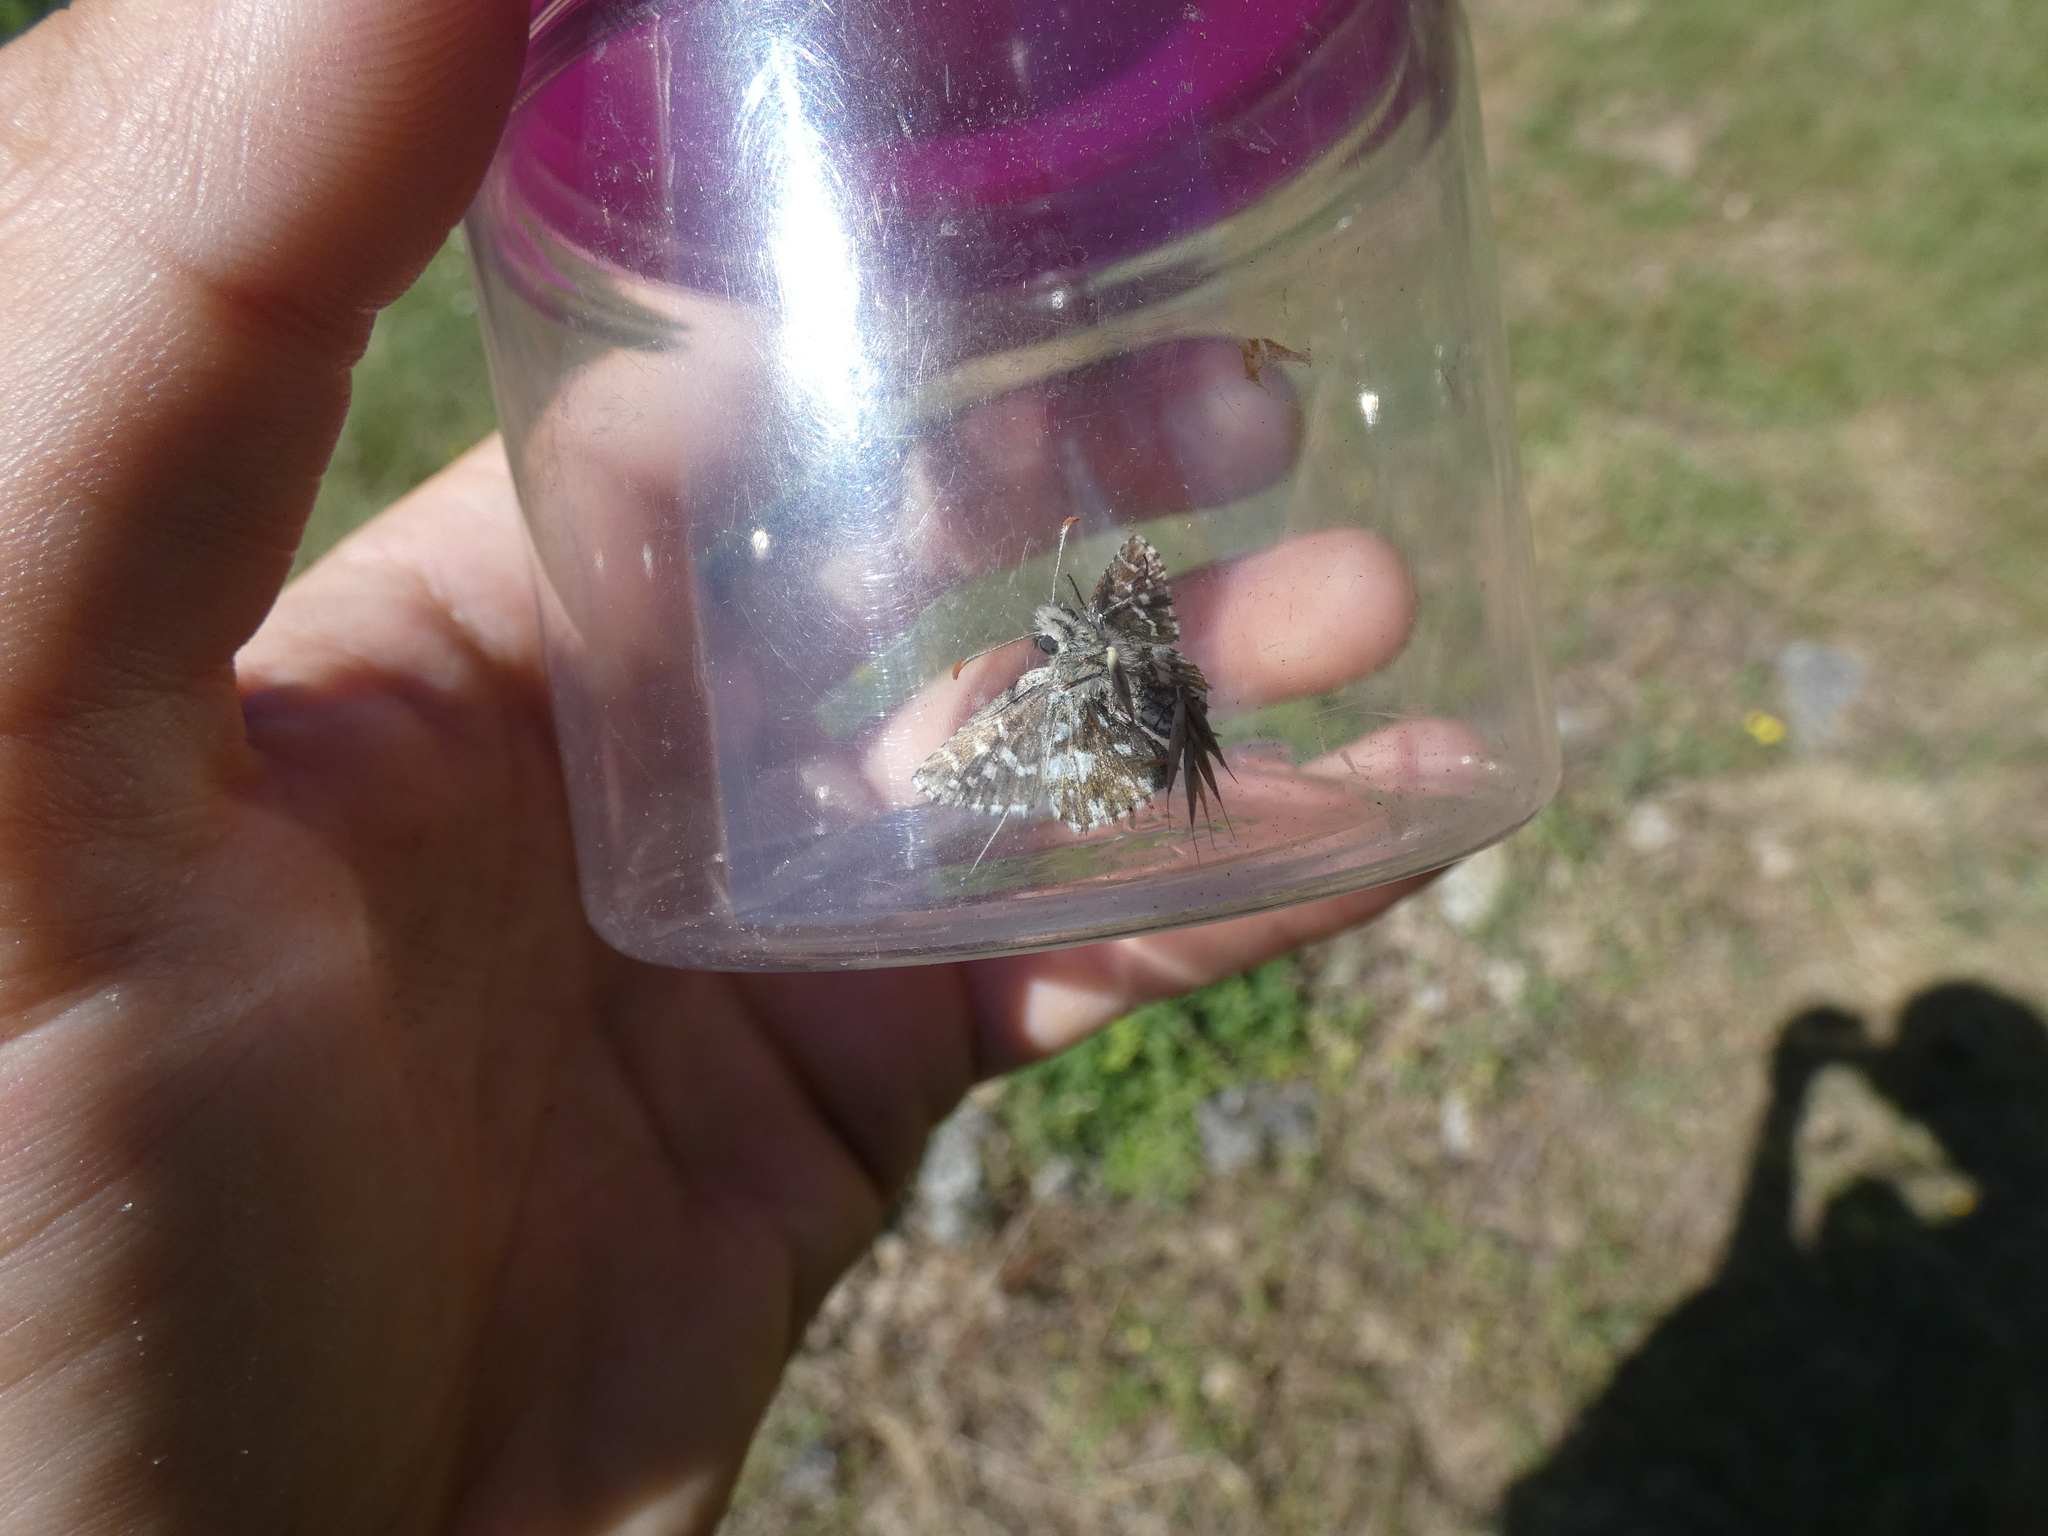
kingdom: Animalia
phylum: Arthropoda
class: Insecta
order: Lepidoptera
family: Hesperiidae
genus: Pyrgus
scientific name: Pyrgus malvoides
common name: Southern grizzled skipper
